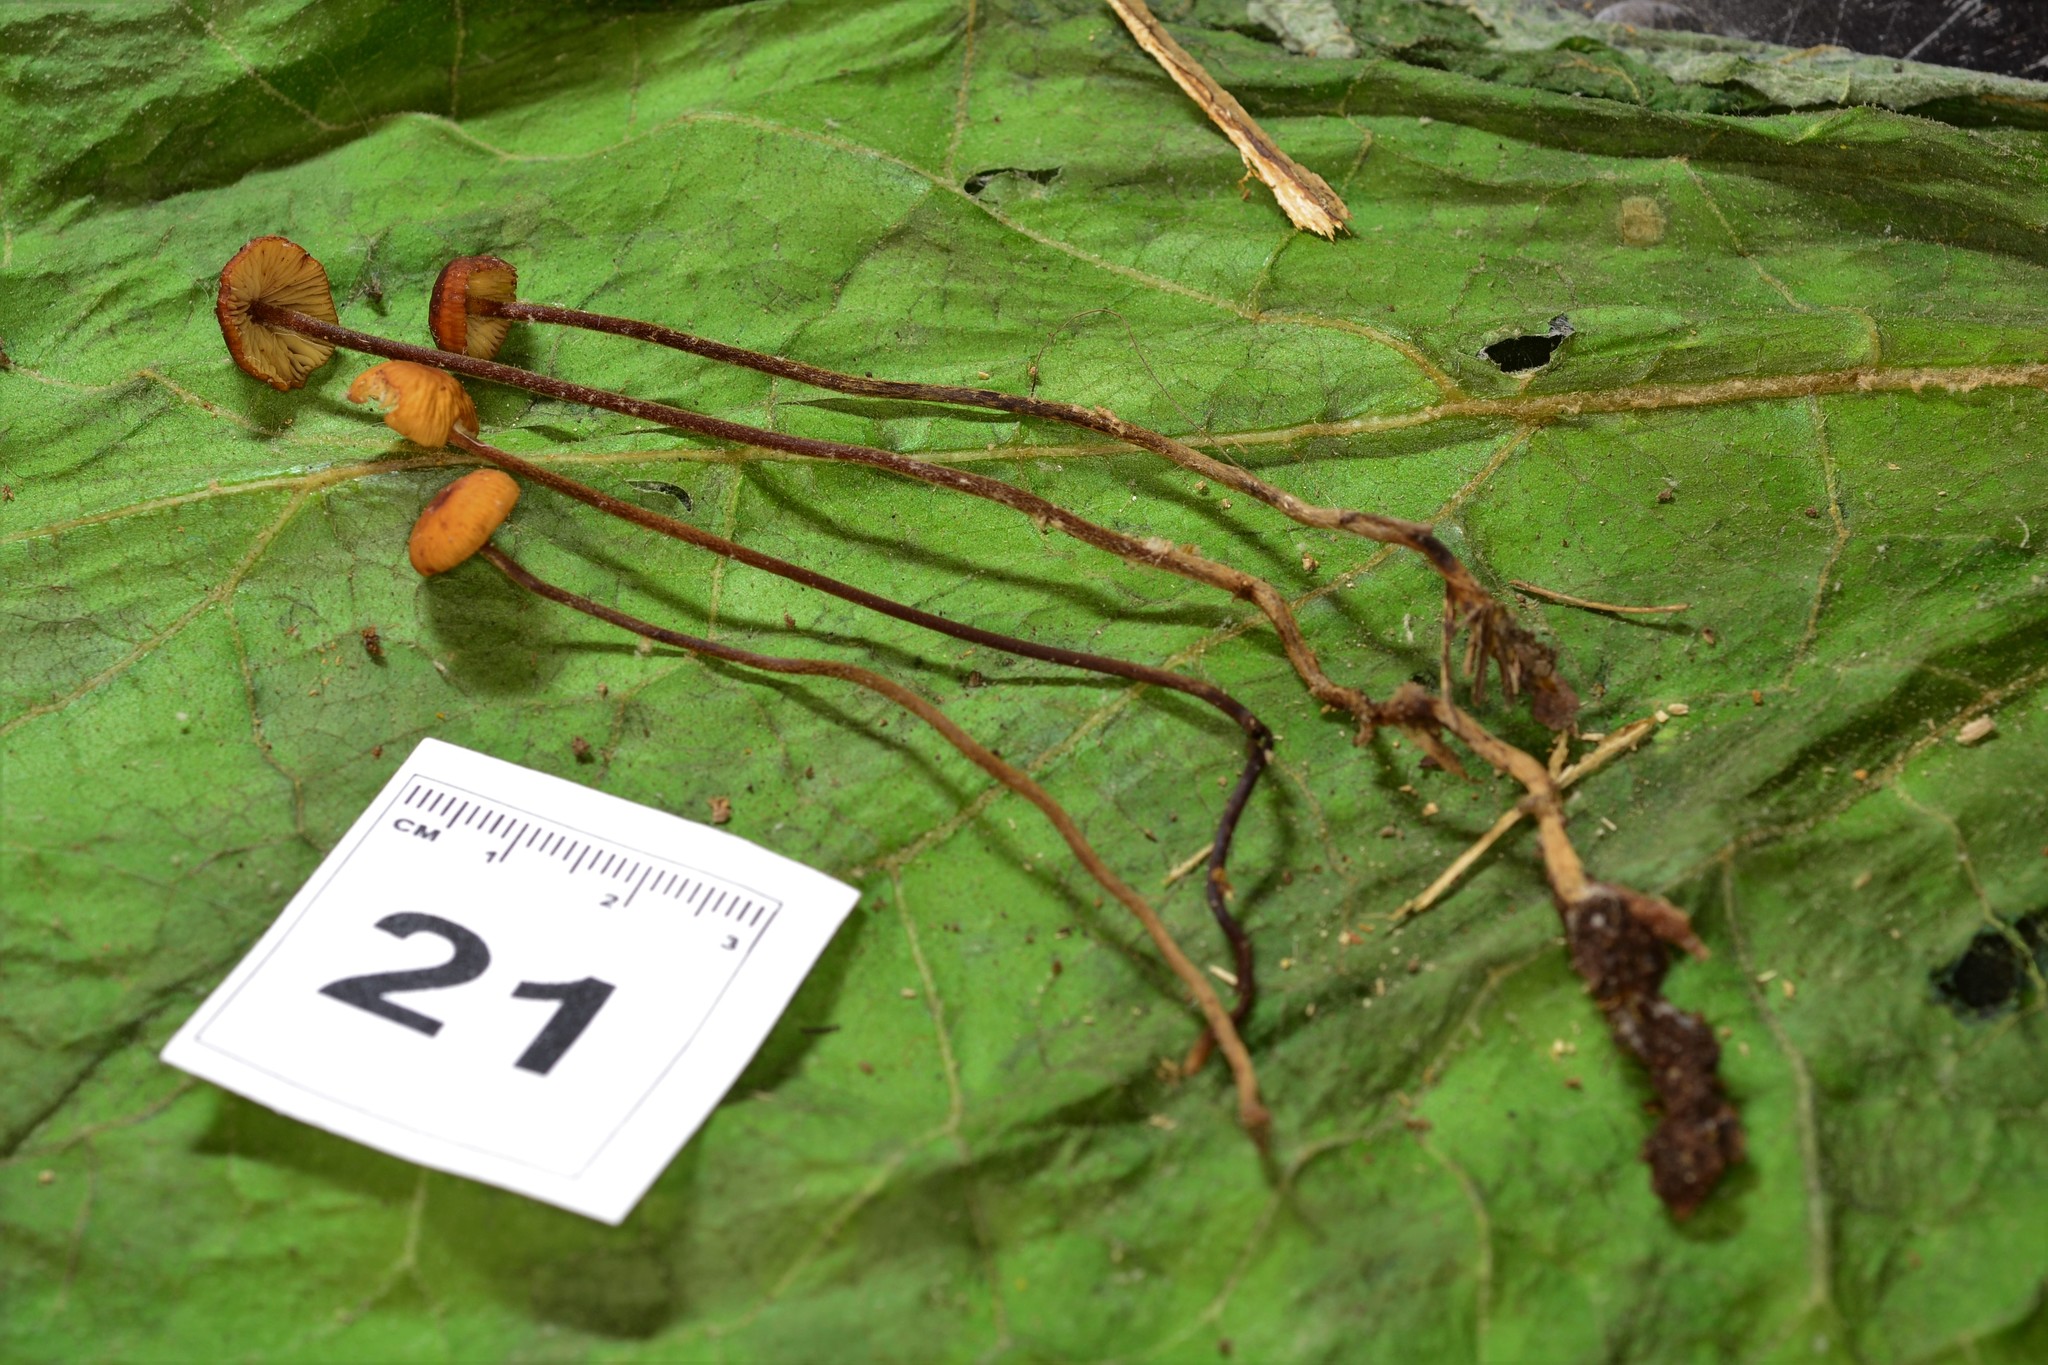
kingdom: Fungi
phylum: Basidiomycota
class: Agaricomycetes
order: Agaricales
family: Physalacriaceae
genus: Rhizomarasmius
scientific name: Rhizomarasmius pyrrhocephalus
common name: Hairy long stem marasmius
